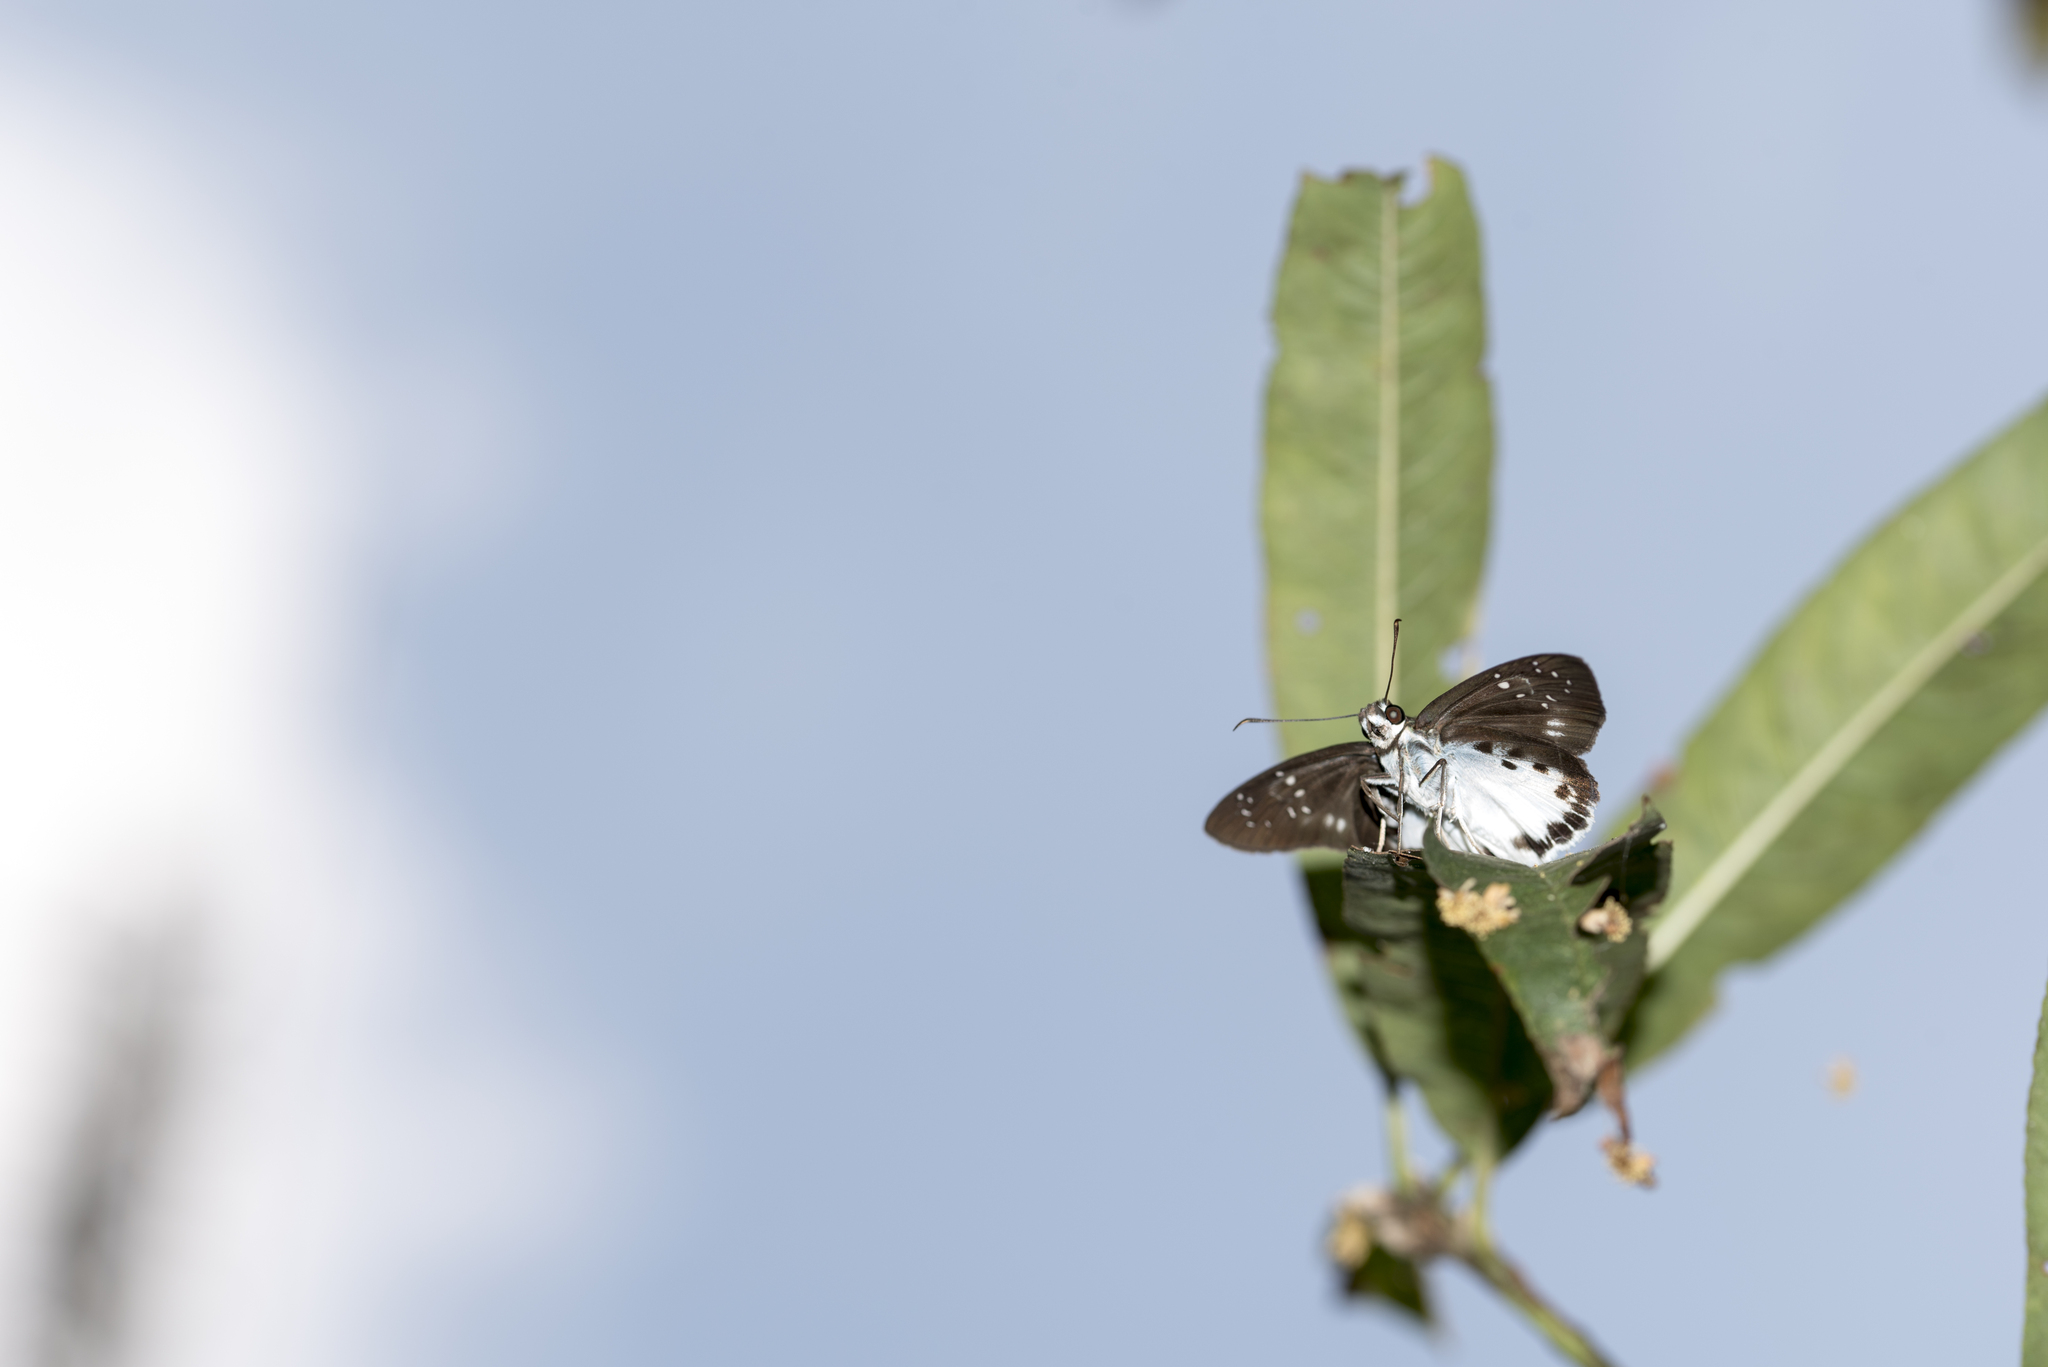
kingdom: Animalia
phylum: Arthropoda
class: Insecta
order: Lepidoptera
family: Hesperiidae
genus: Tagiades
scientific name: Tagiades trebellius
